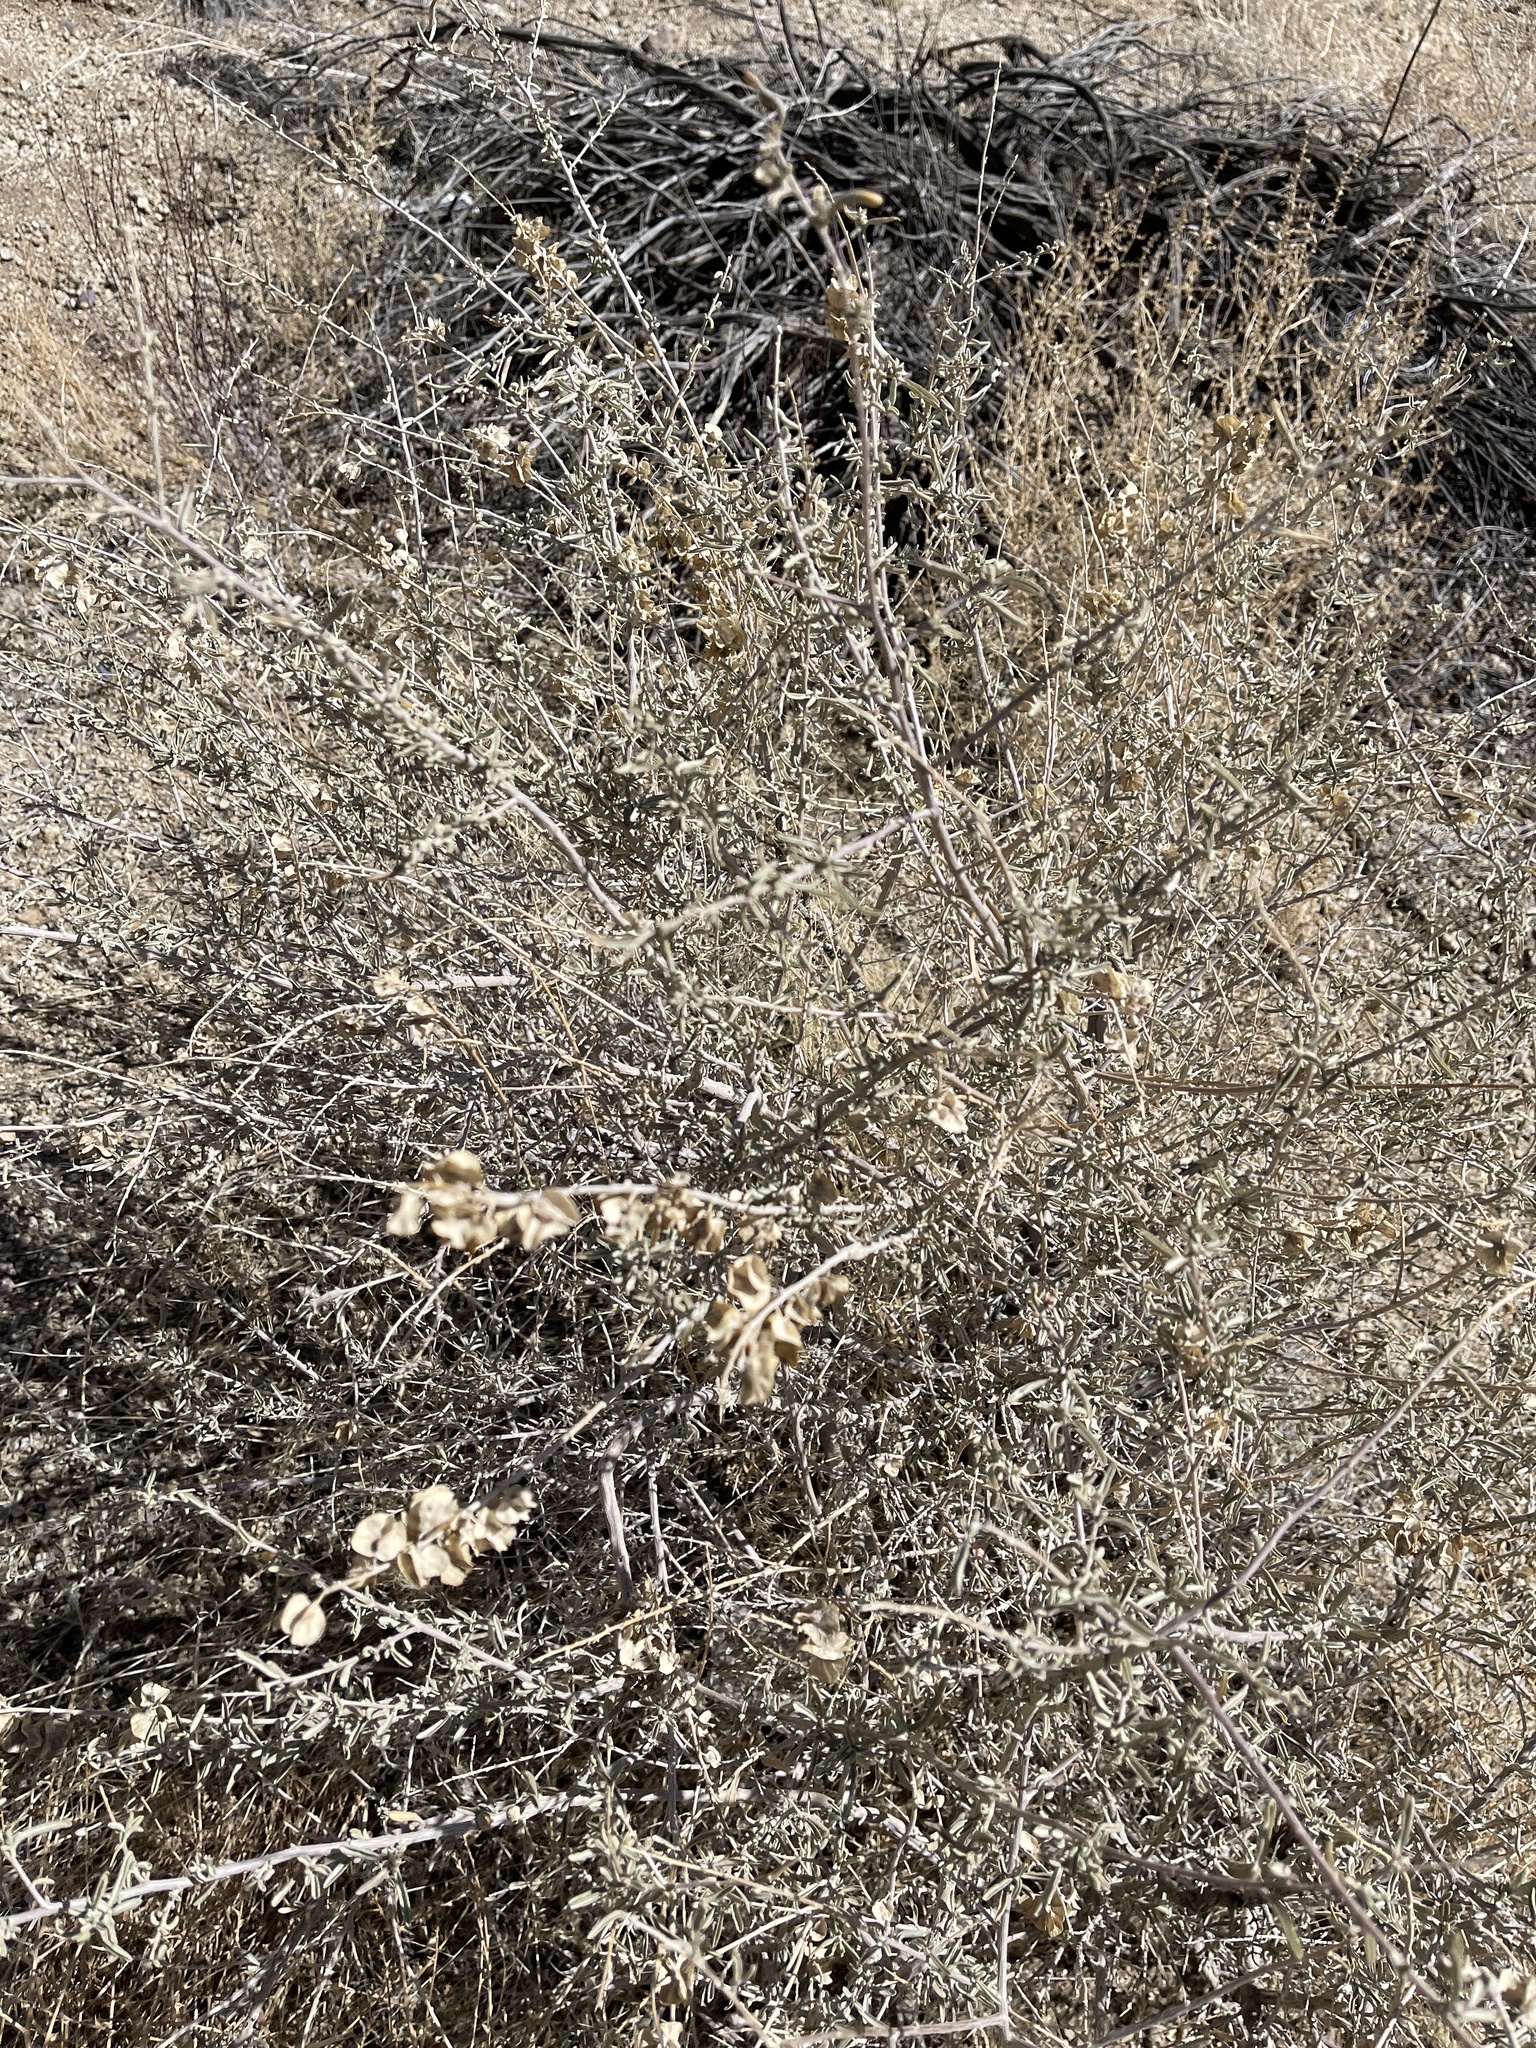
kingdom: Plantae
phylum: Tracheophyta
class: Magnoliopsida
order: Caryophyllales
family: Amaranthaceae
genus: Atriplex
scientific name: Atriplex canescens
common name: Four-wing saltbush
